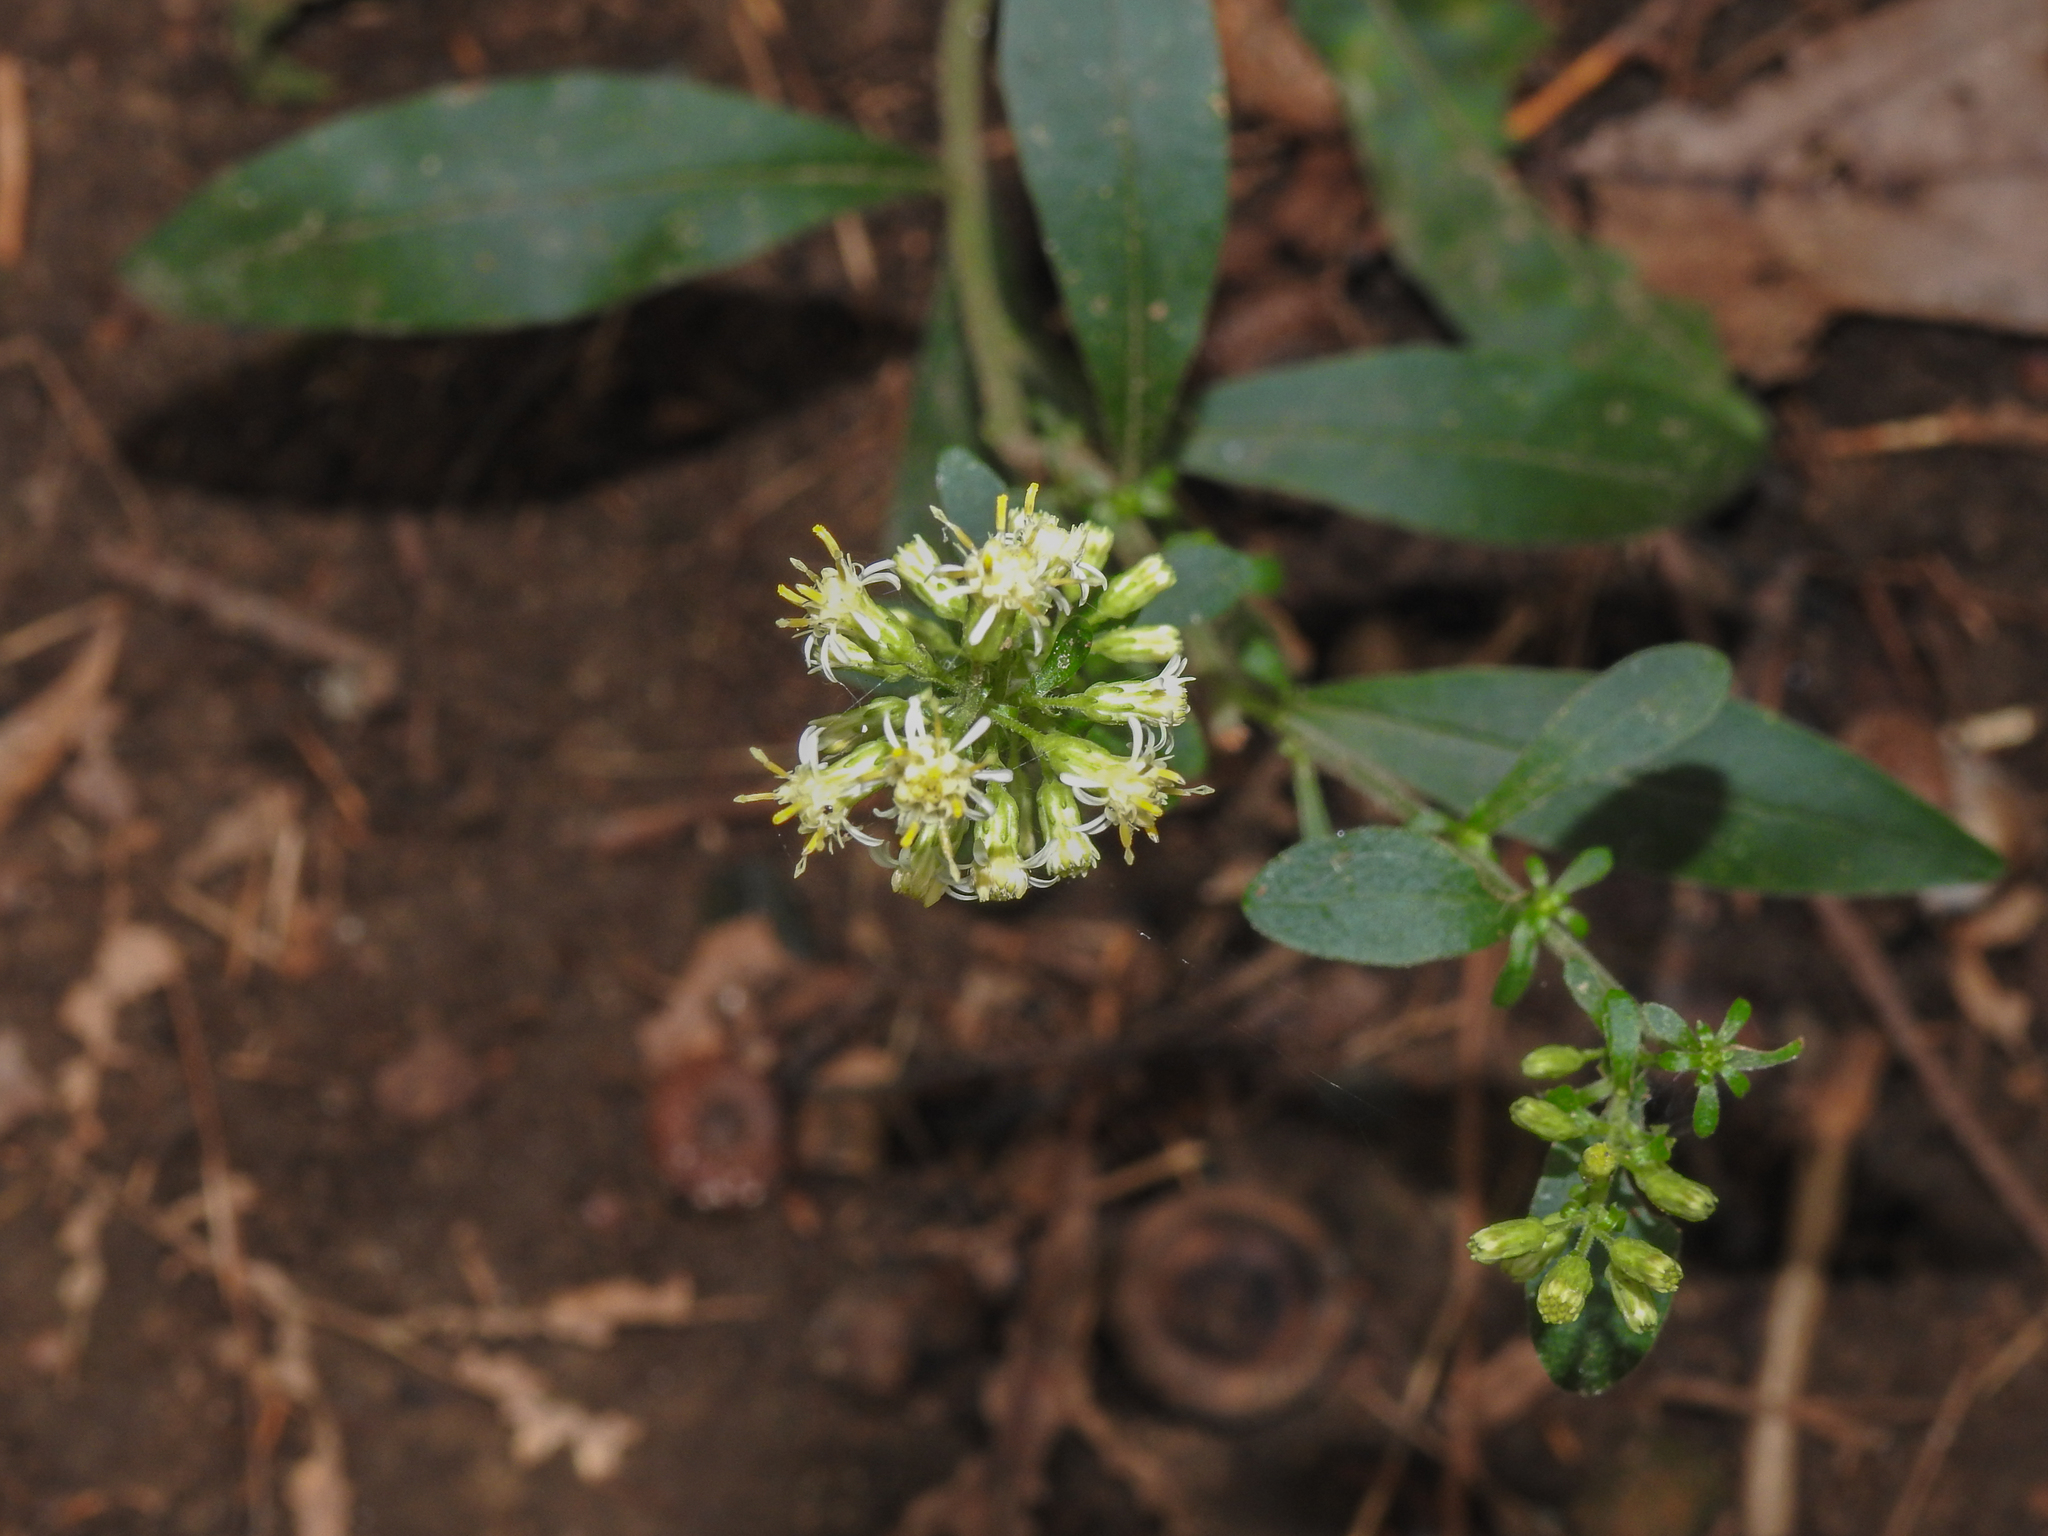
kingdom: Plantae
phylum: Tracheophyta
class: Magnoliopsida
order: Asterales
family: Asteraceae
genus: Solidago
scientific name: Solidago bicolor
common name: Silverrod
